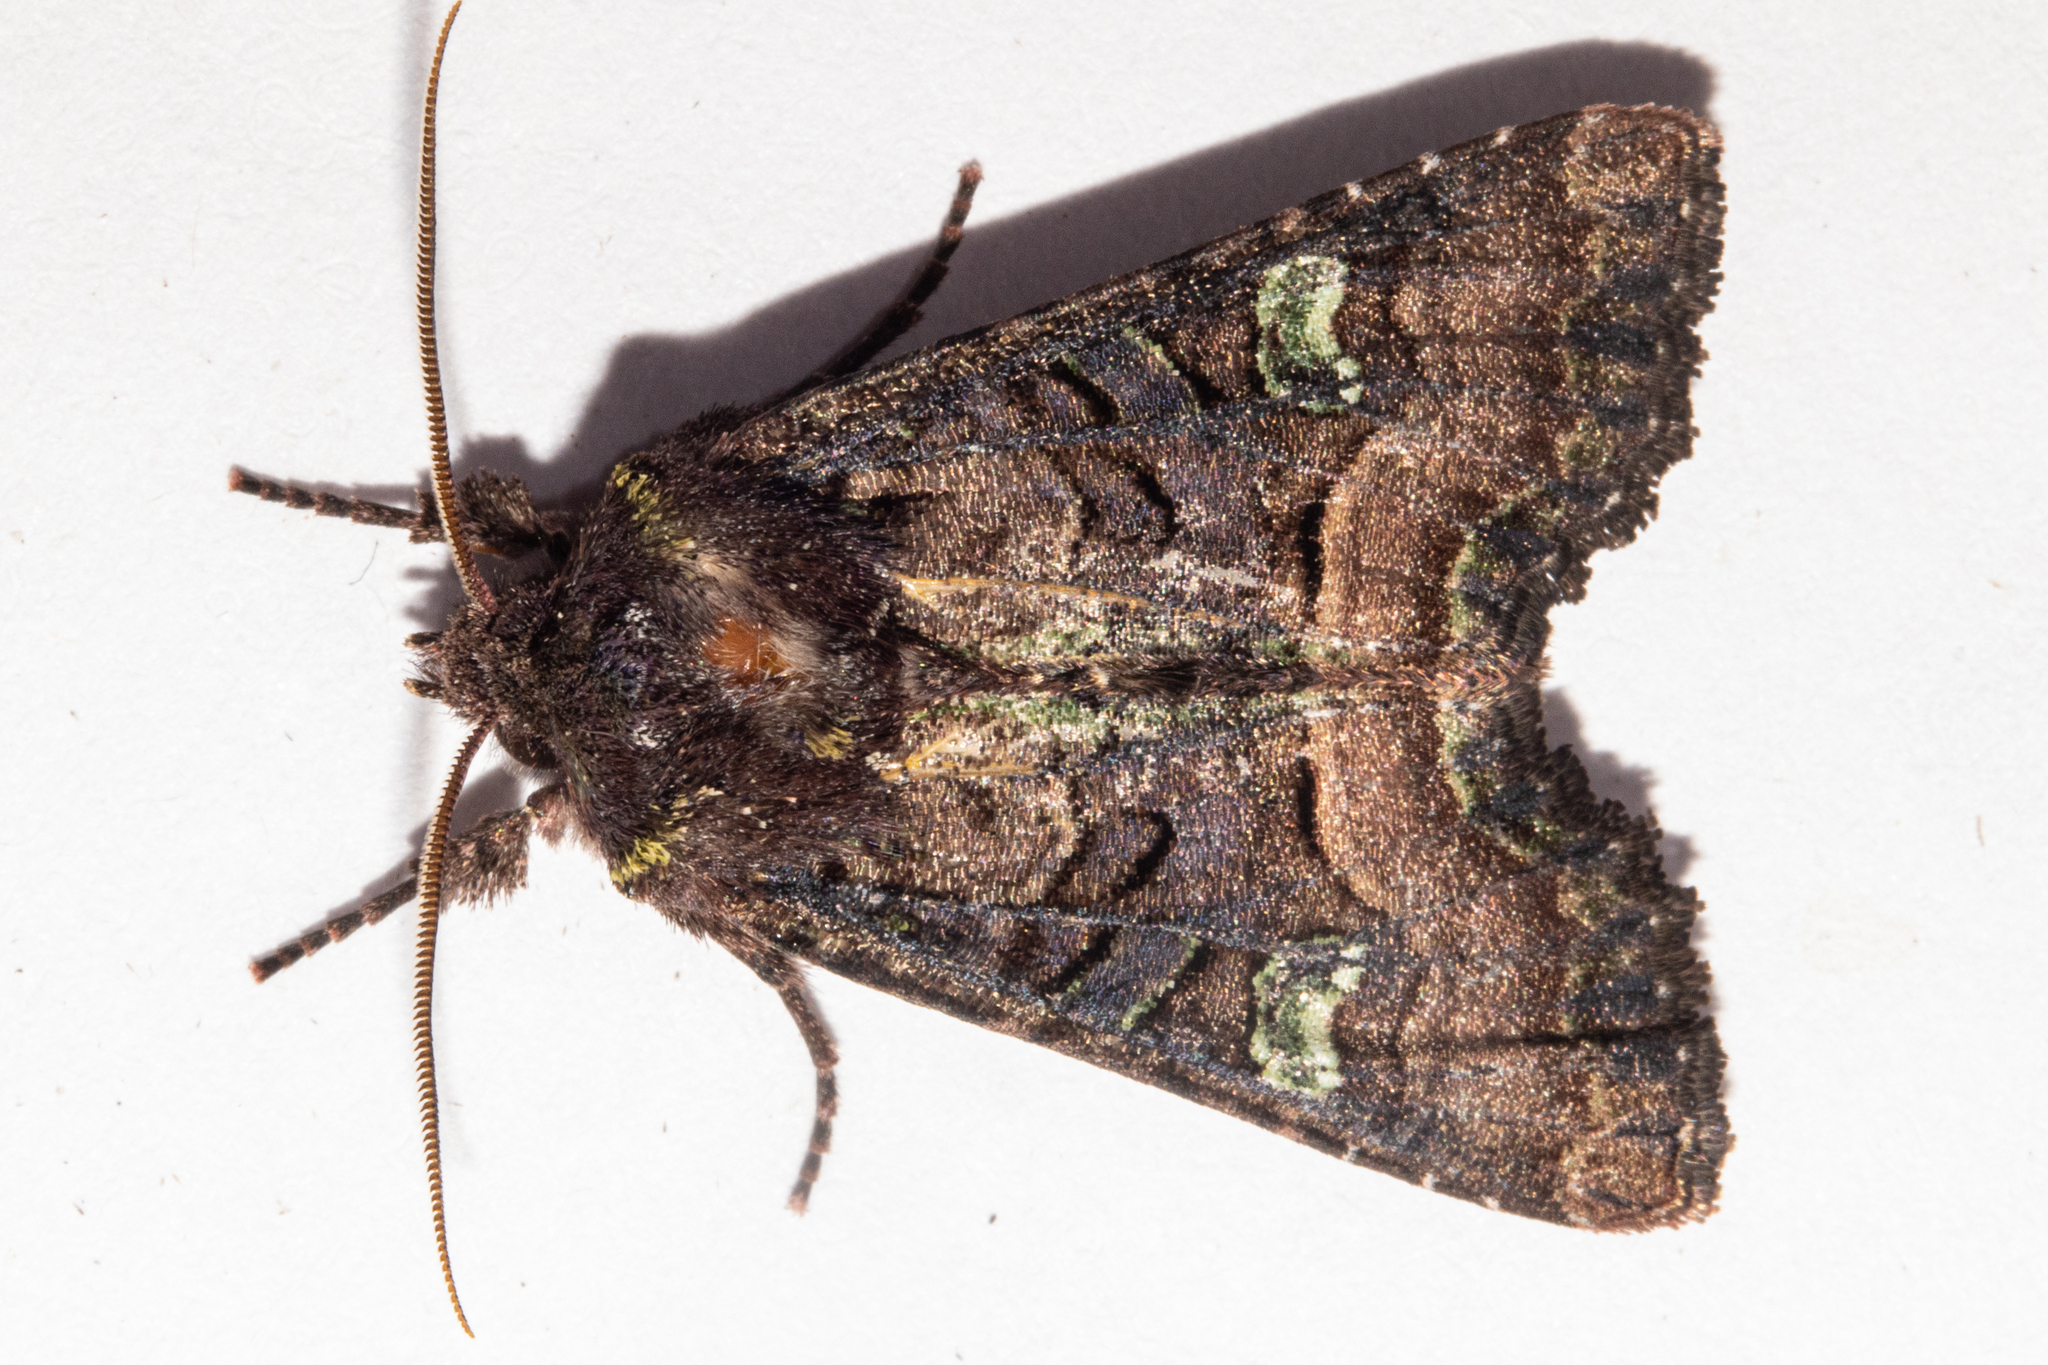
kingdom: Animalia
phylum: Arthropoda
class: Insecta
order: Lepidoptera
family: Noctuidae
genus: Meterana
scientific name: Meterana asterope
